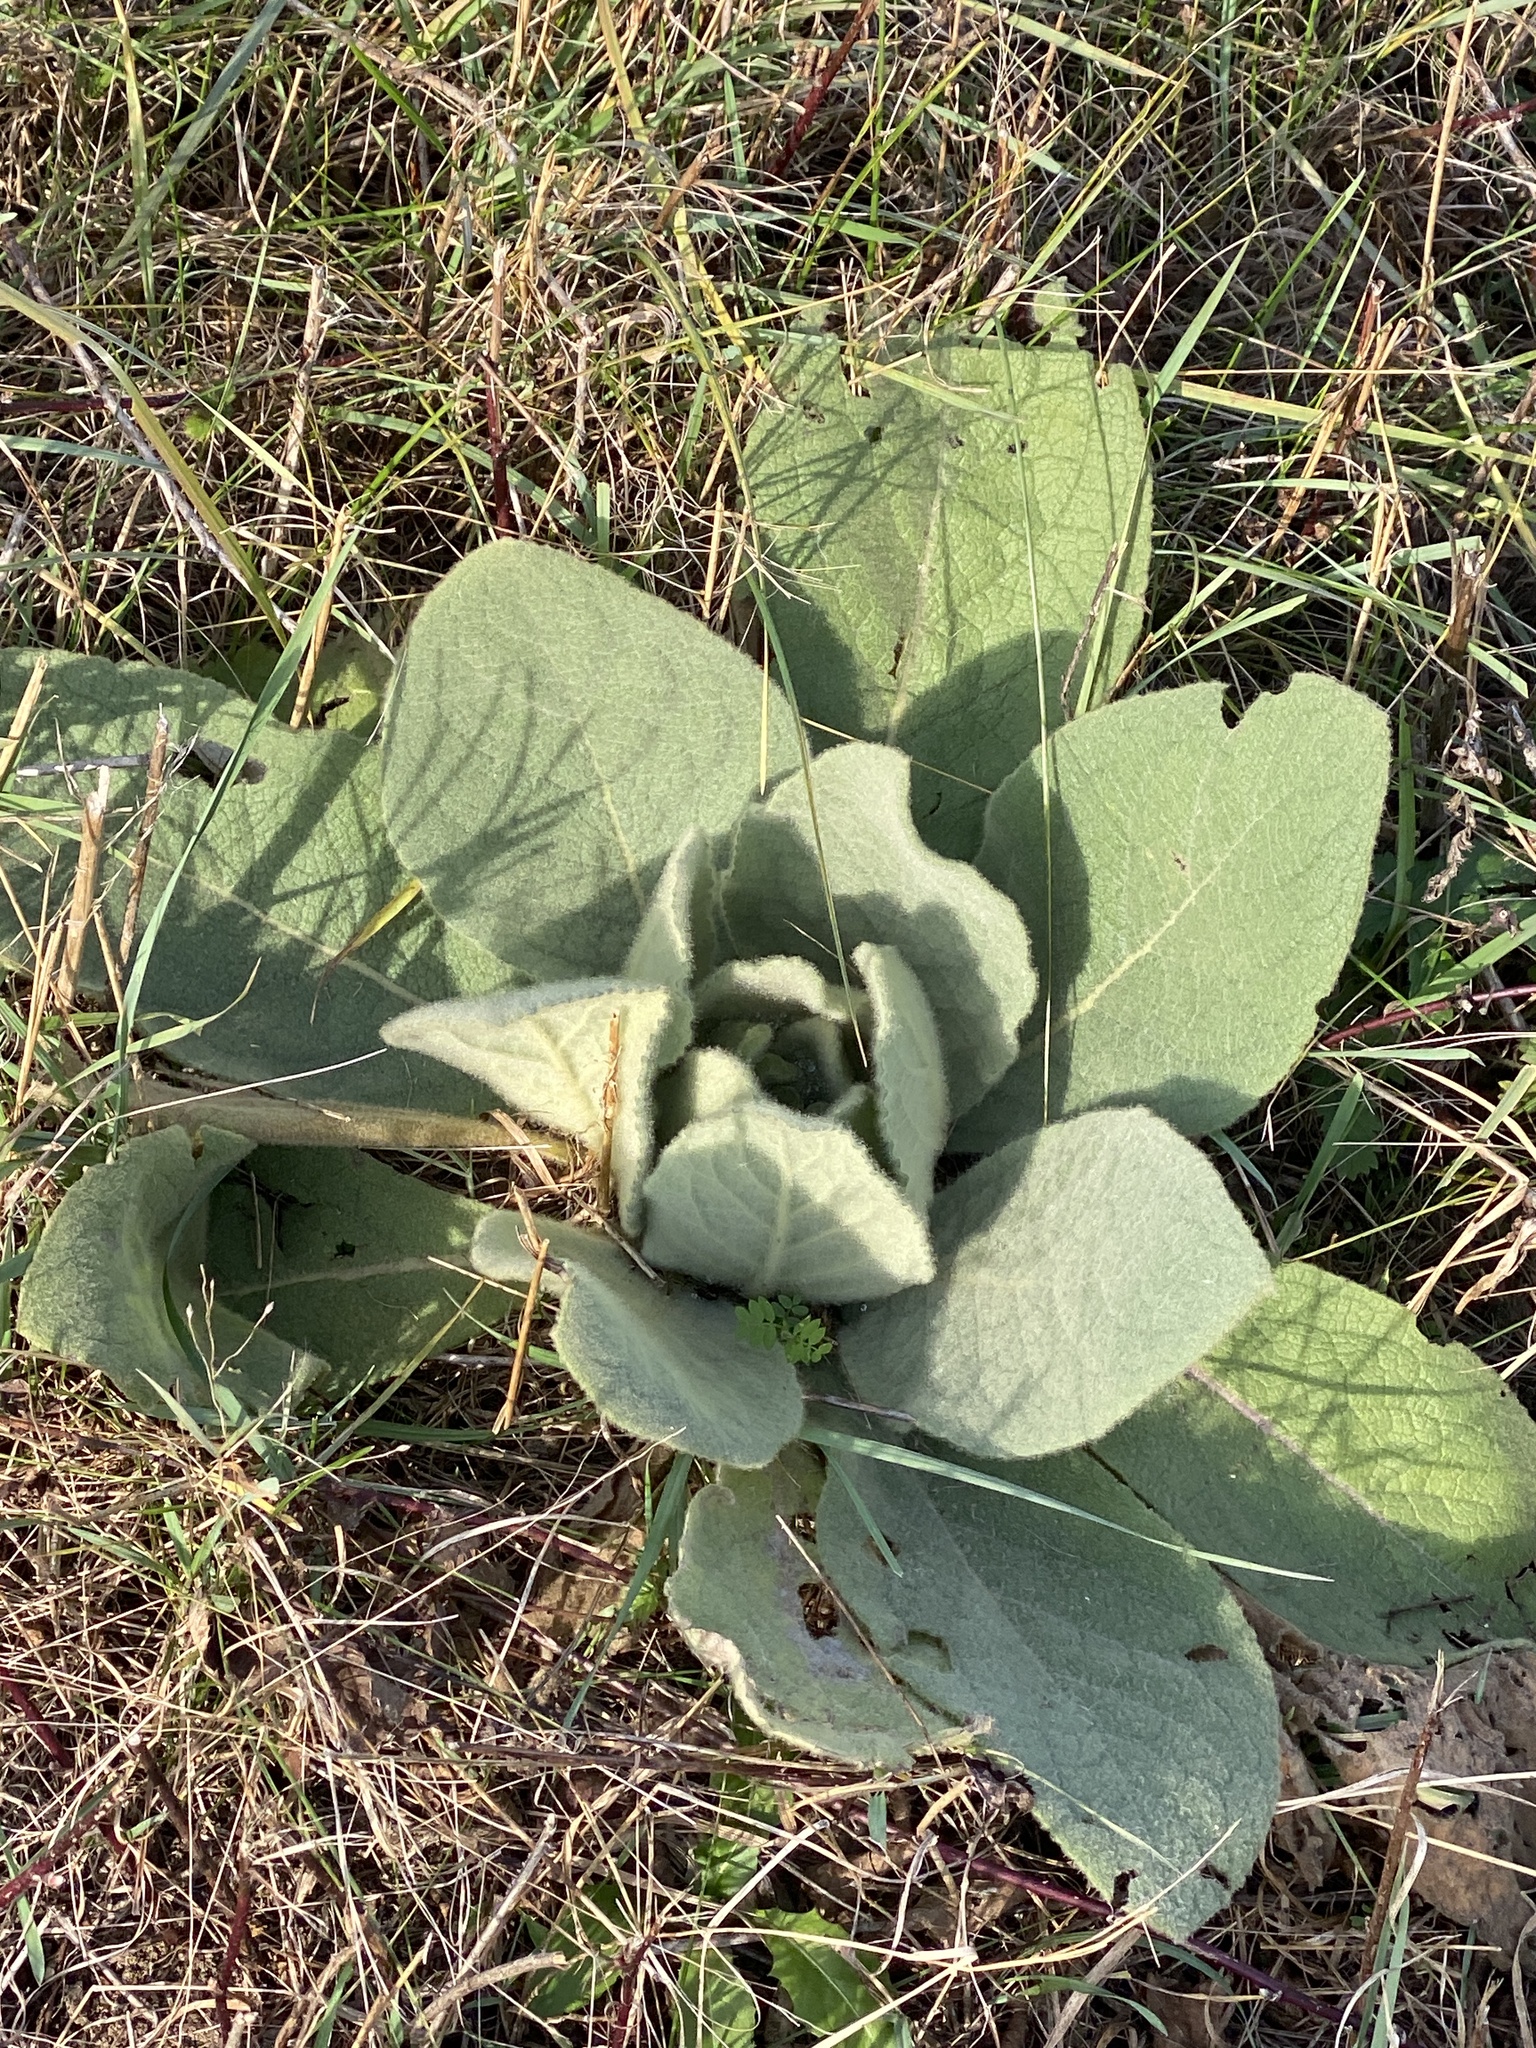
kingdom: Plantae
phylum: Tracheophyta
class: Magnoliopsida
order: Lamiales
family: Scrophulariaceae
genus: Verbascum
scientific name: Verbascum thapsus
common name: Common mullein
